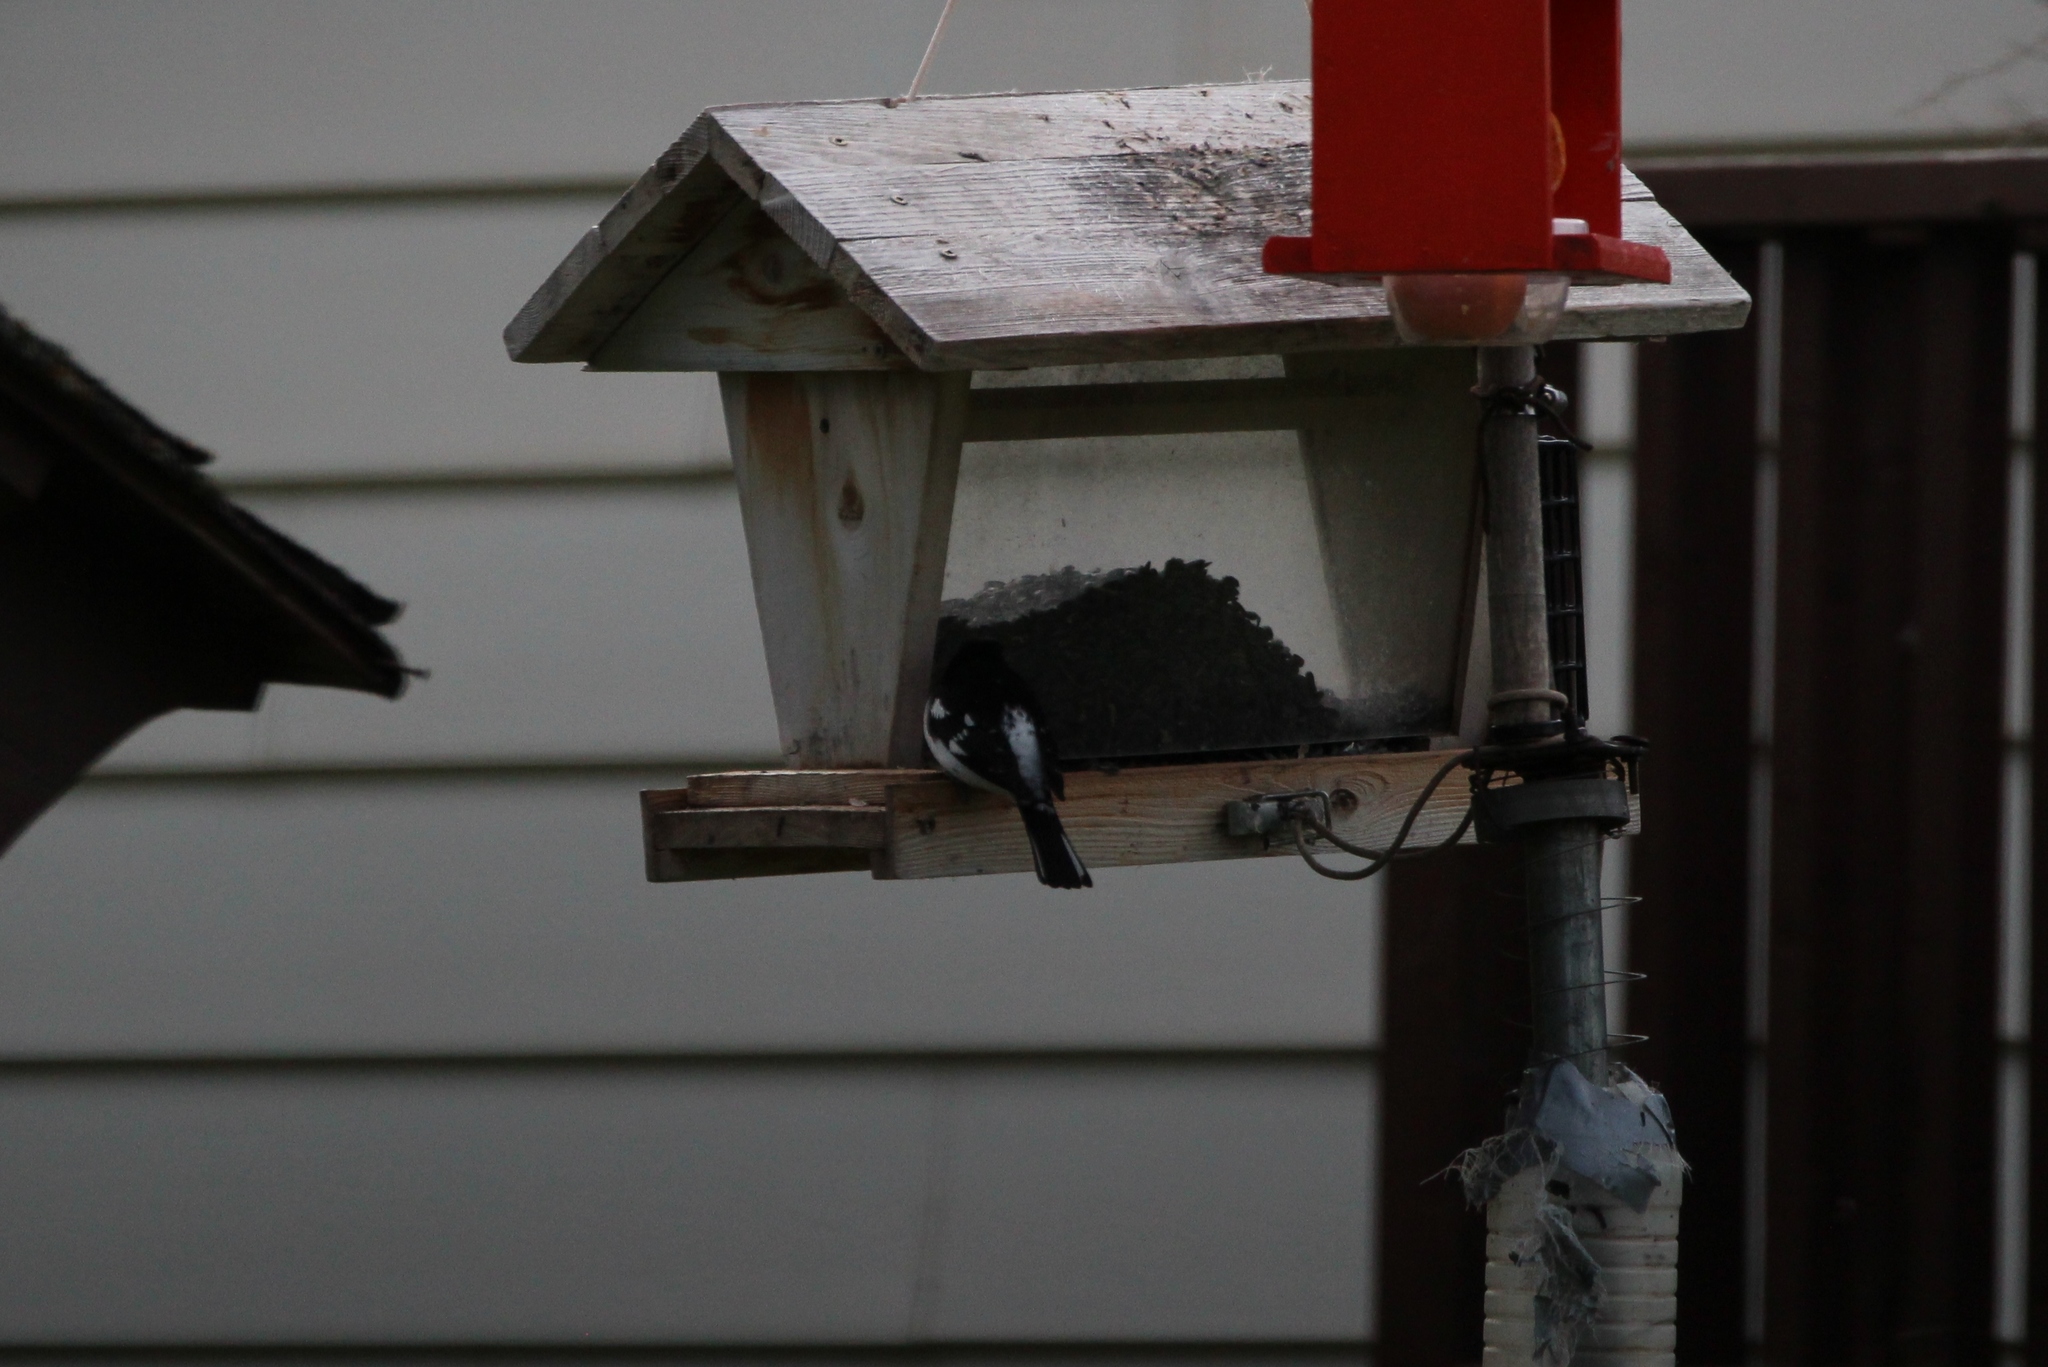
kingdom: Animalia
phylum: Chordata
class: Aves
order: Passeriformes
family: Cardinalidae
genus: Pheucticus
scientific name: Pheucticus ludovicianus
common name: Rose-breasted grosbeak
